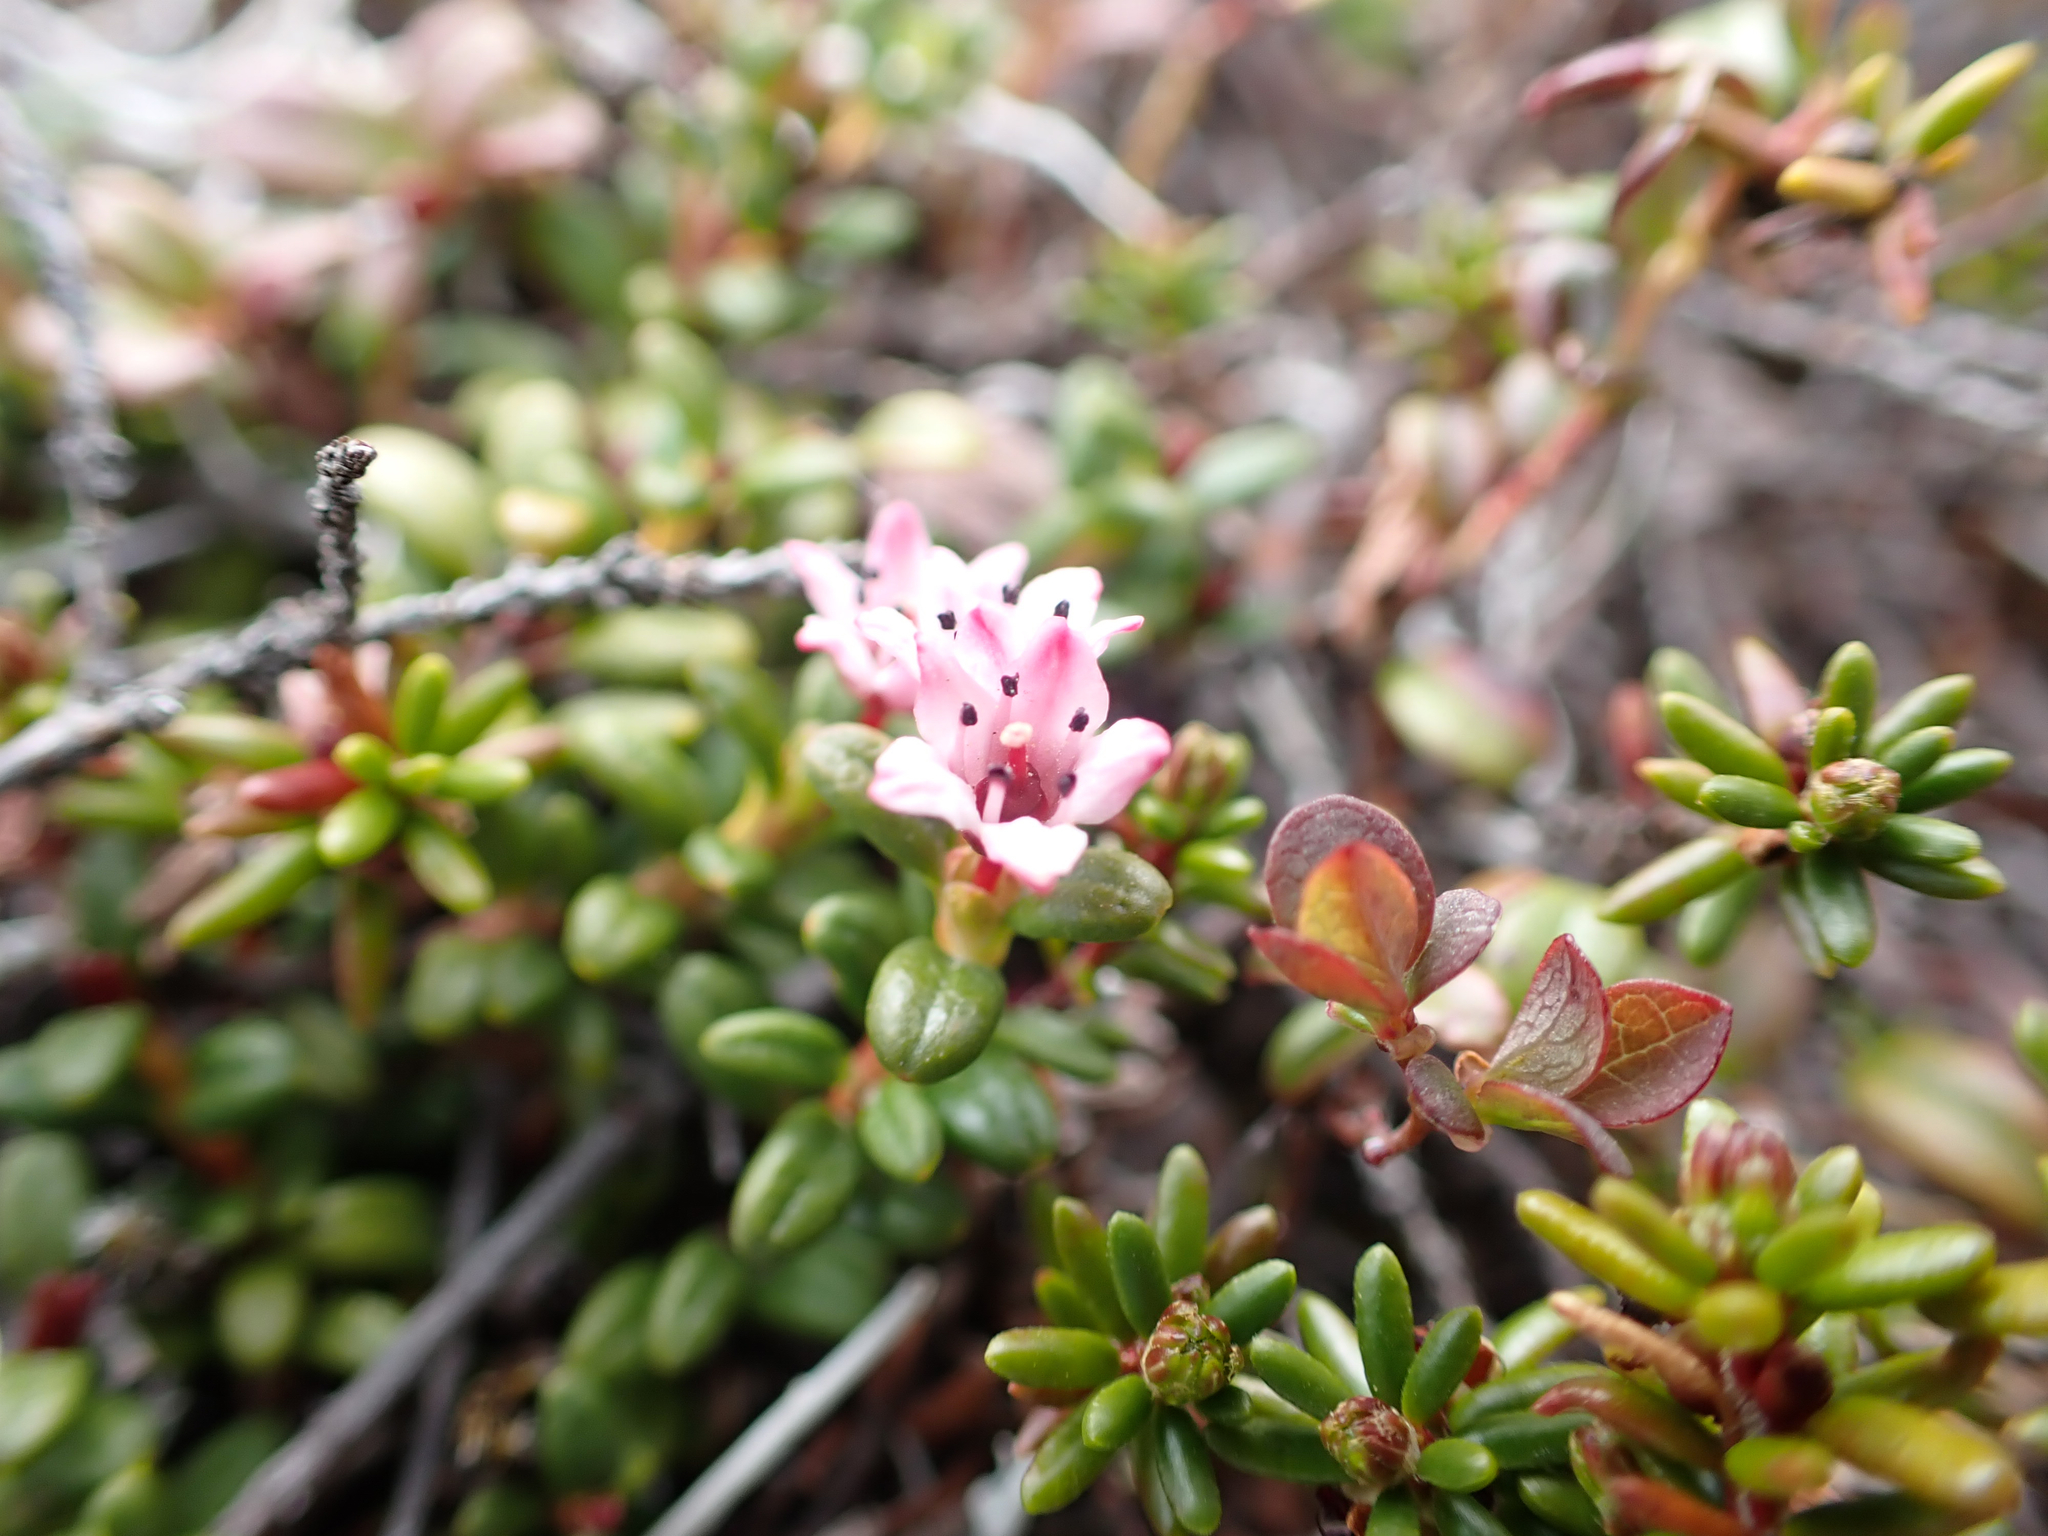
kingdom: Plantae
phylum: Tracheophyta
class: Magnoliopsida
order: Ericales
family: Ericaceae
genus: Kalmia
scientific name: Kalmia procumbens
